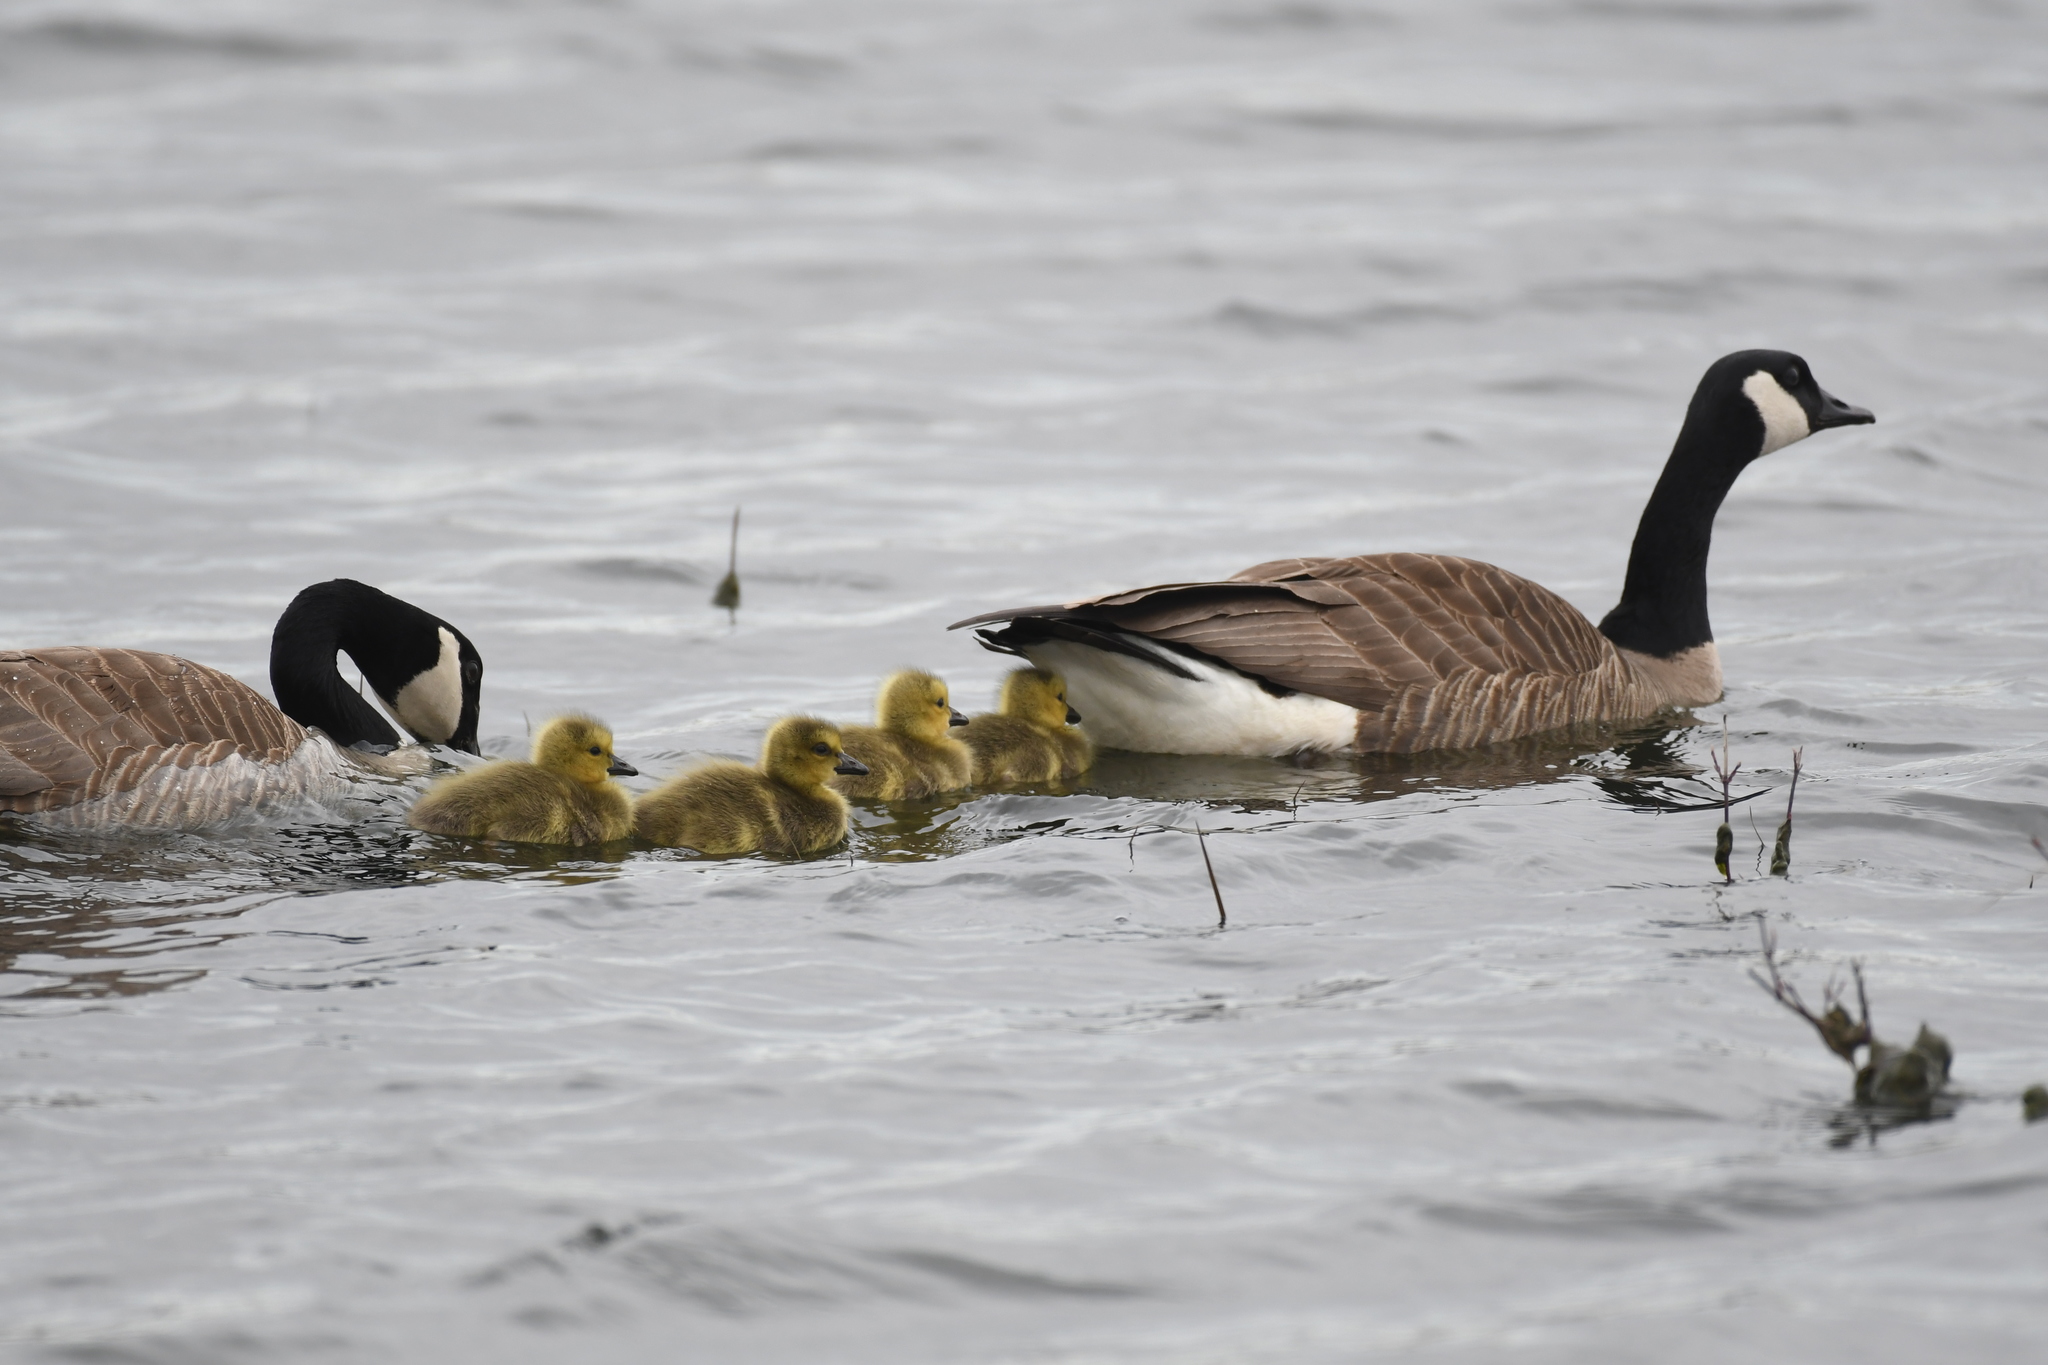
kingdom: Animalia
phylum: Chordata
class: Aves
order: Anseriformes
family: Anatidae
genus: Branta
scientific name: Branta canadensis
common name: Canada goose
